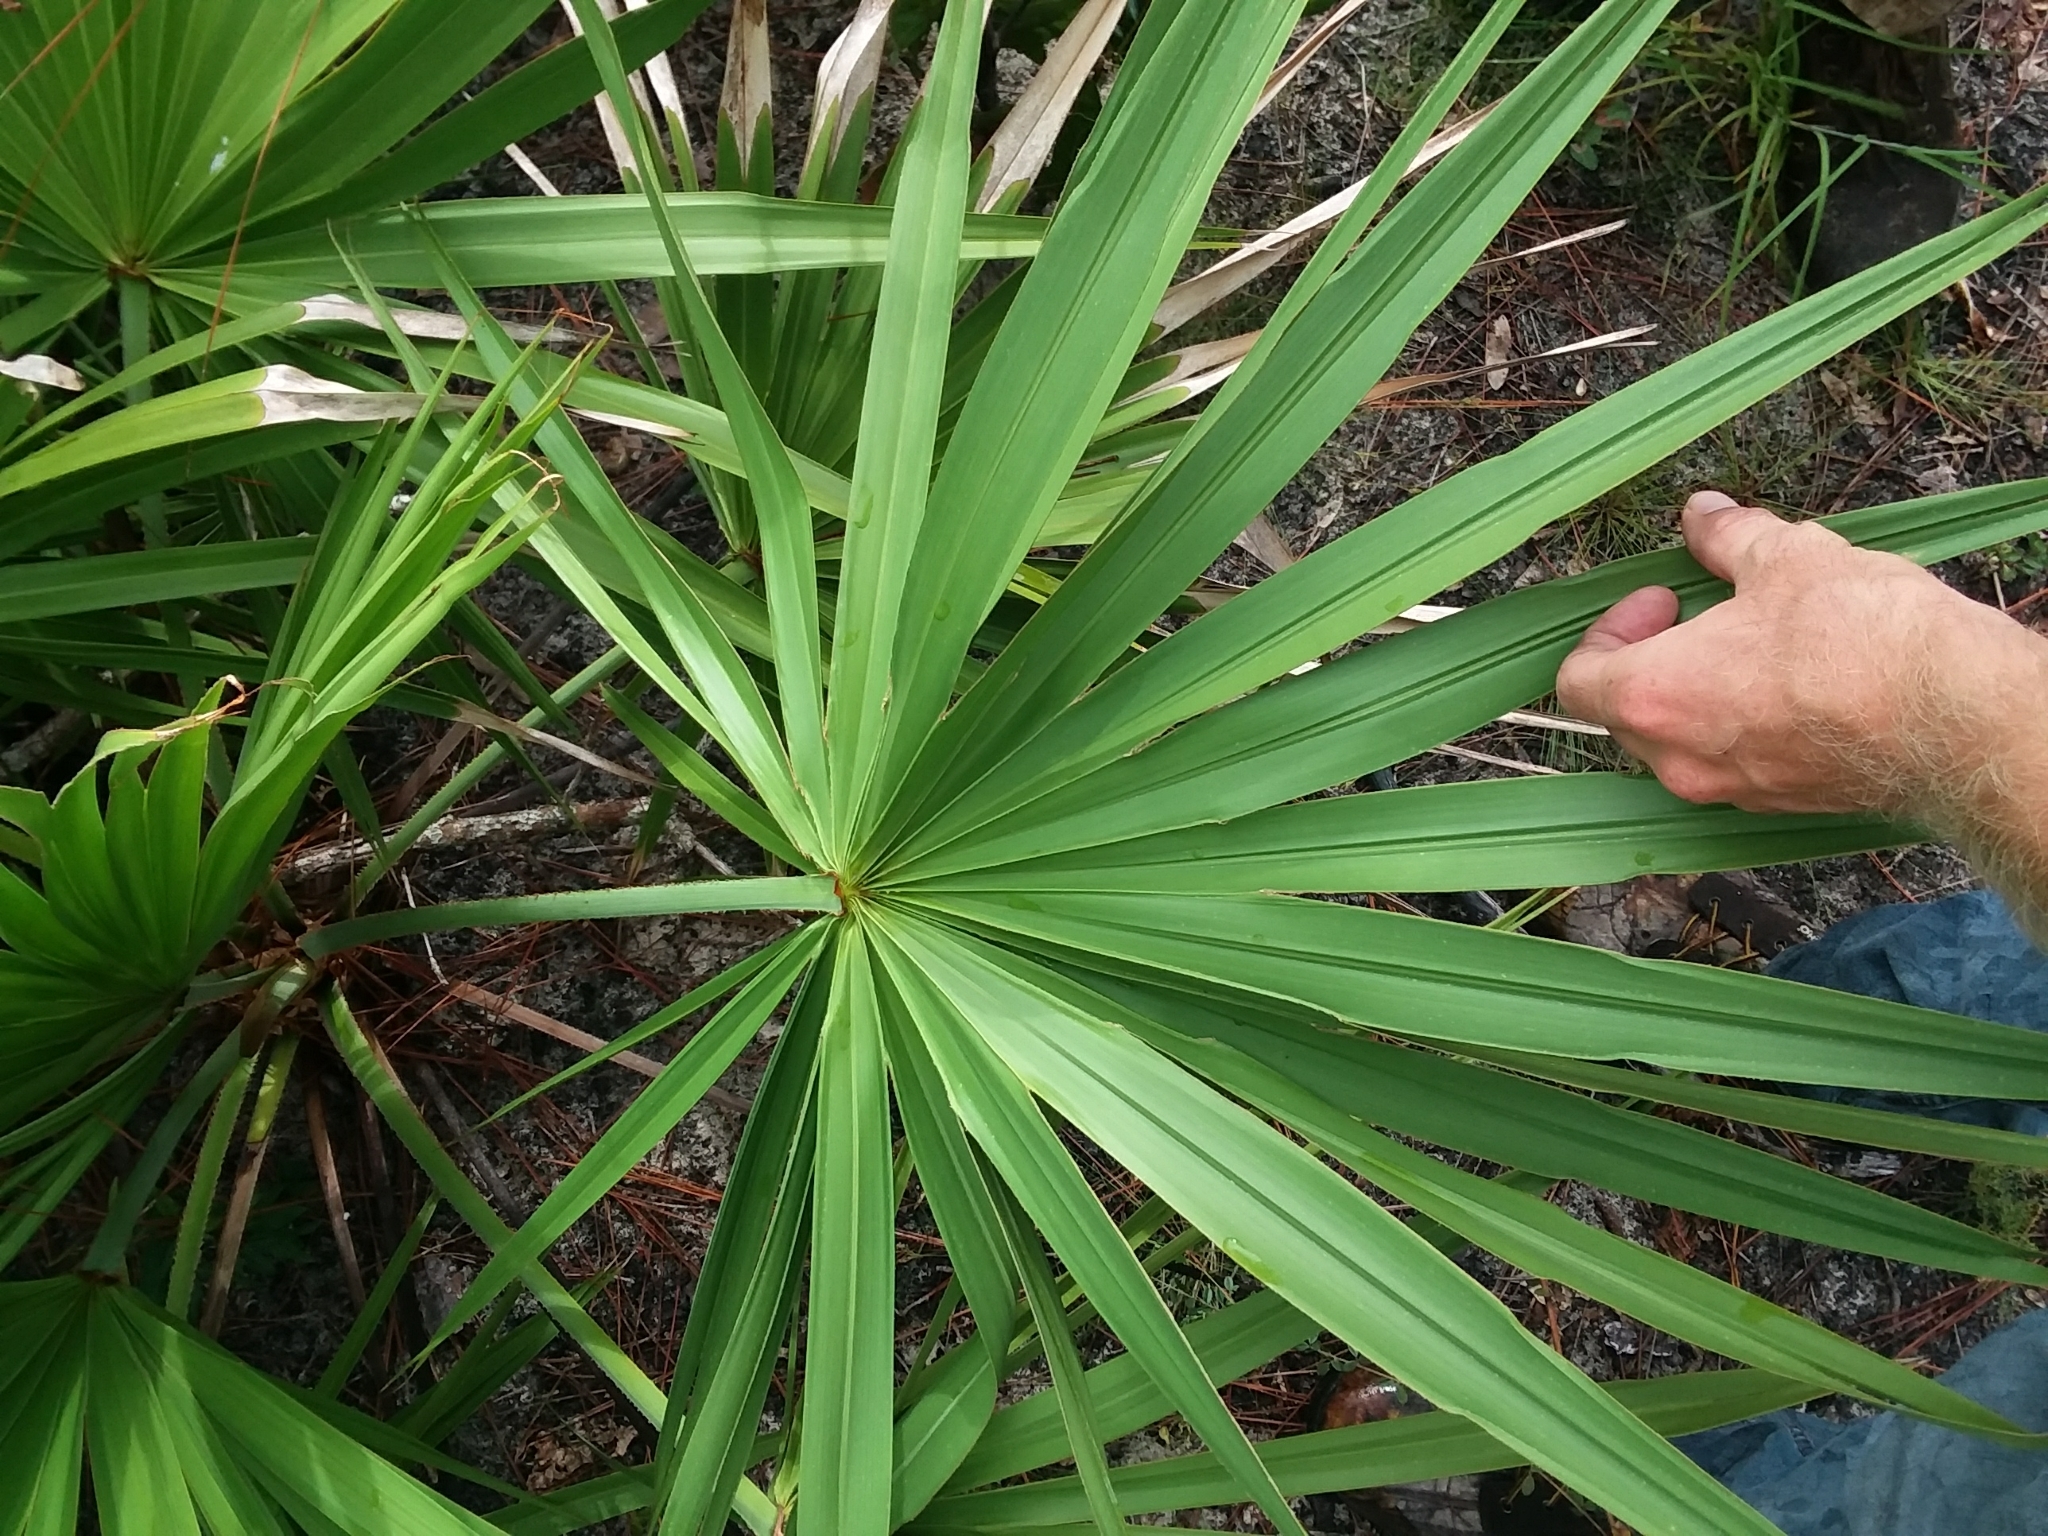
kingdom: Plantae
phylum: Tracheophyta
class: Liliopsida
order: Arecales
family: Arecaceae
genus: Serenoa
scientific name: Serenoa repens
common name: Saw-palmetto
